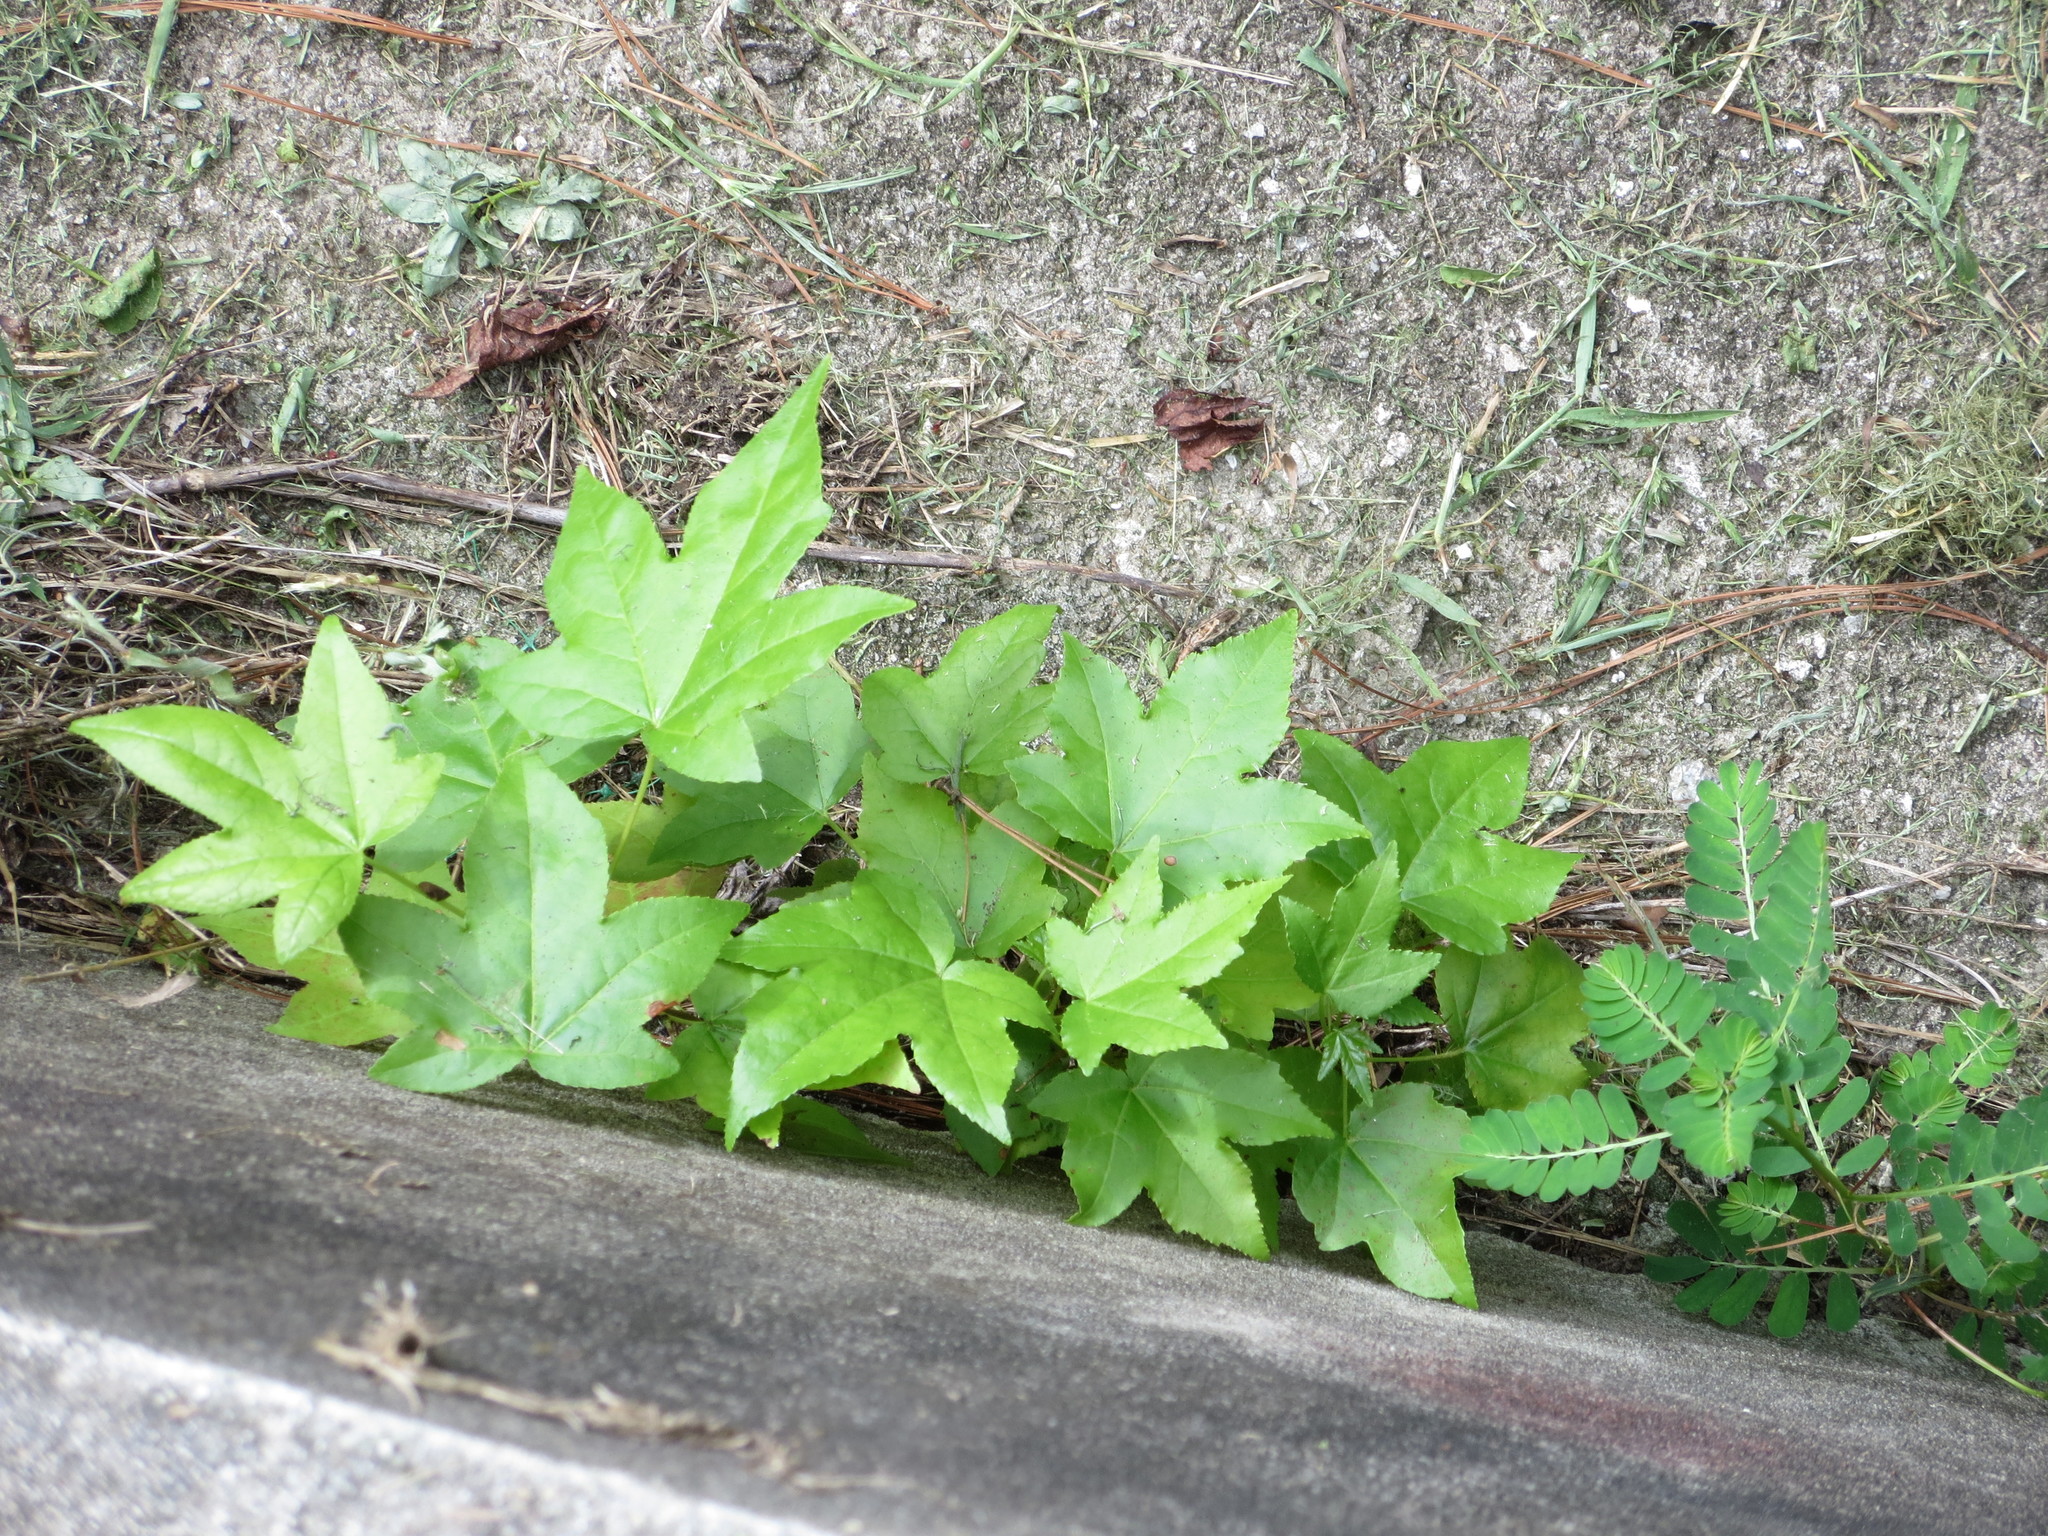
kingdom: Plantae
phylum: Tracheophyta
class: Magnoliopsida
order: Saxifragales
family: Altingiaceae
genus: Liquidambar
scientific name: Liquidambar styraciflua
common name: Sweet gum
